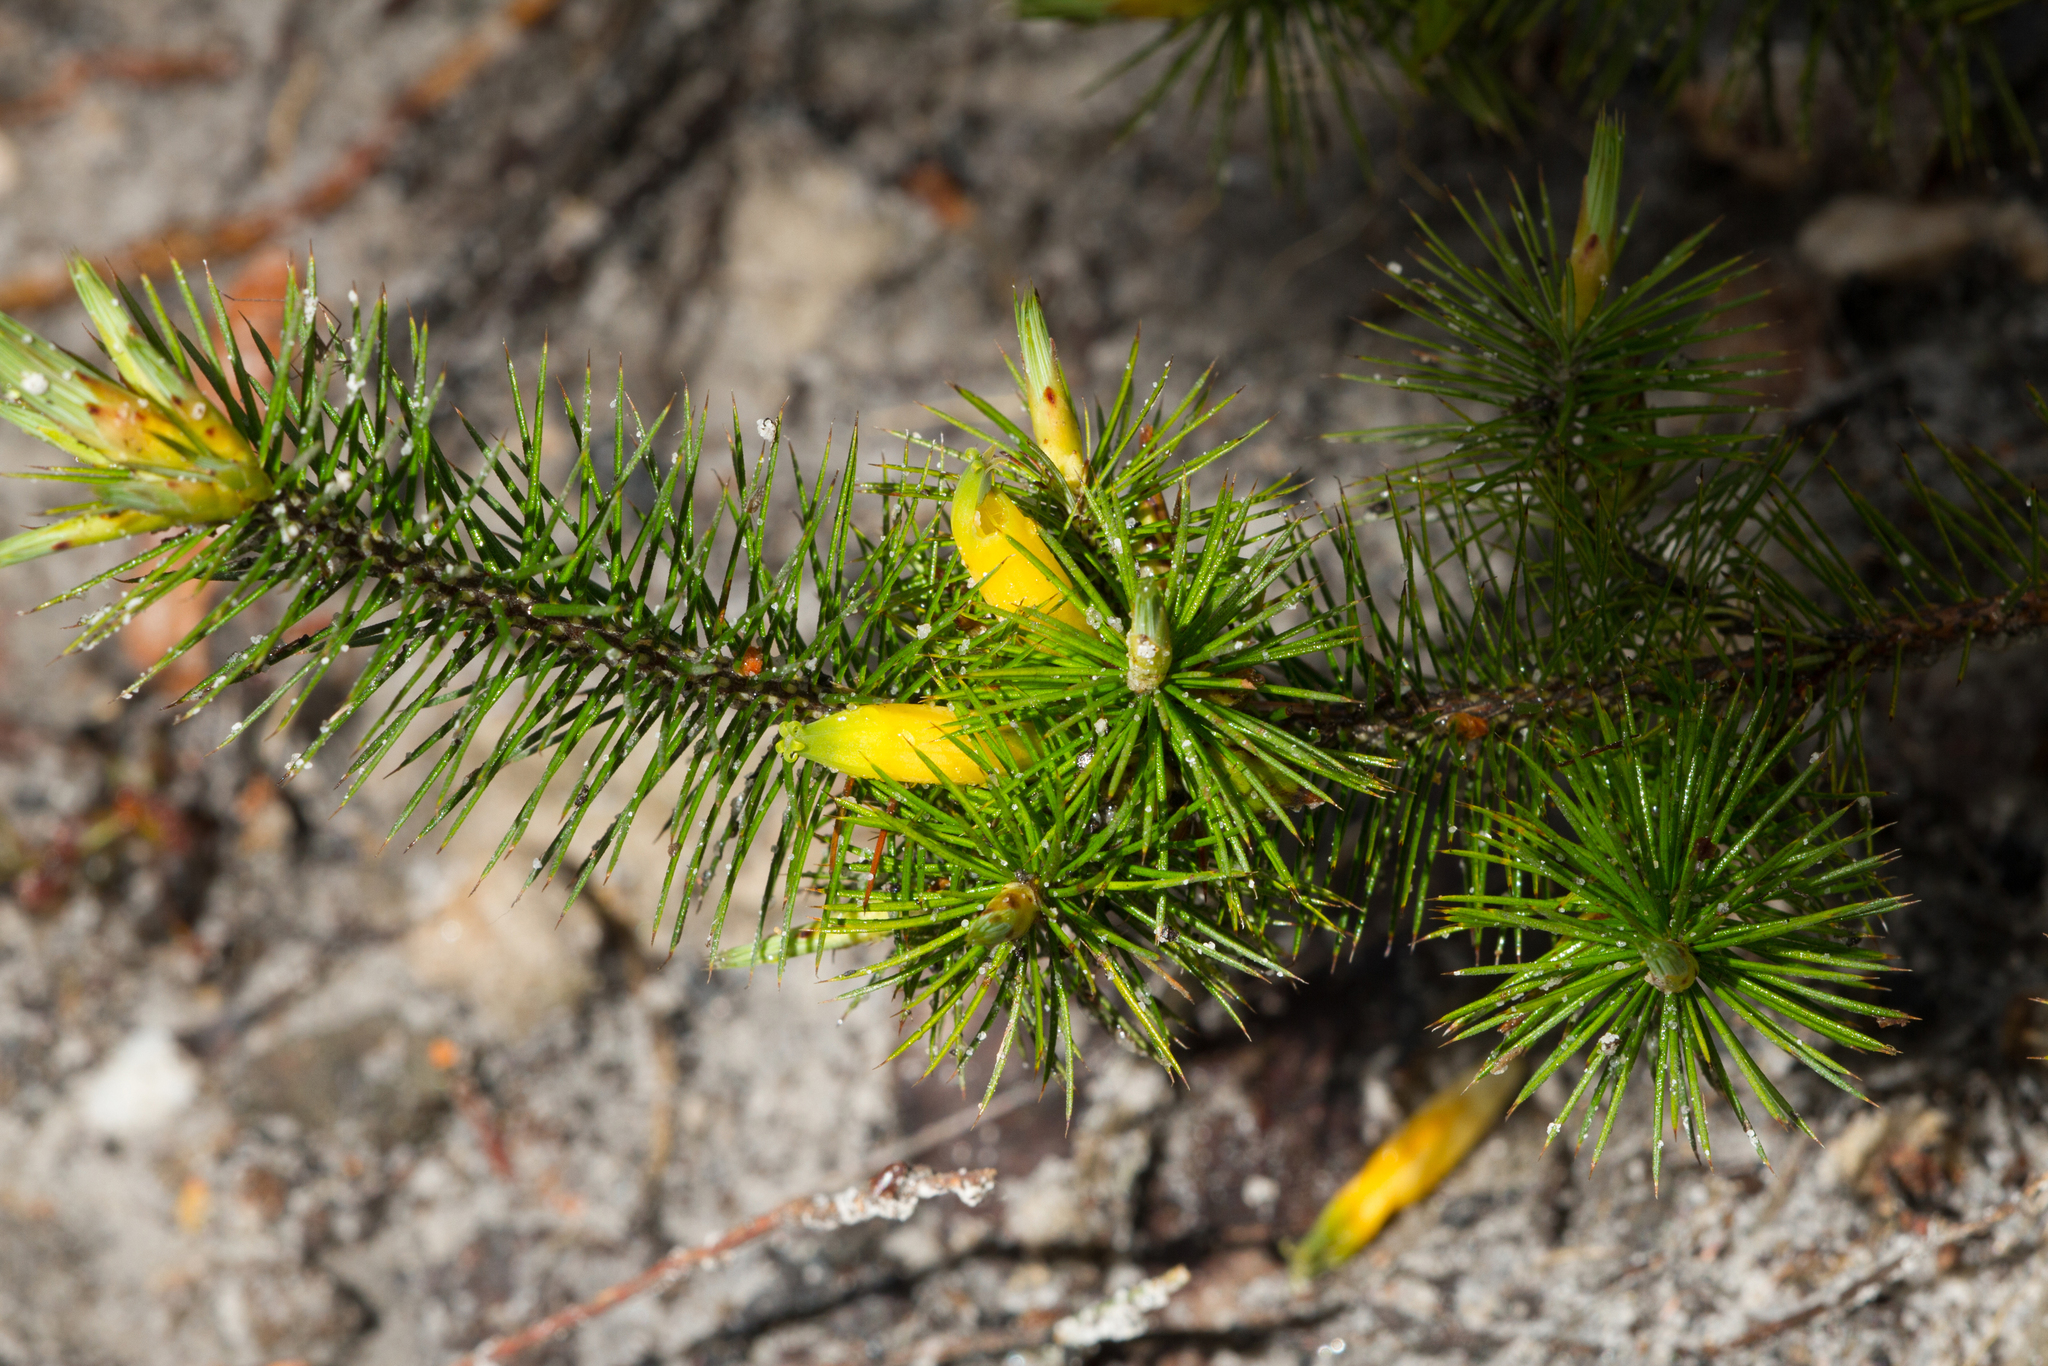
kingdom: Plantae
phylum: Tracheophyta
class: Magnoliopsida
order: Ericales
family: Ericaceae
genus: Stenanthera
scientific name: Stenanthera pinifolia
